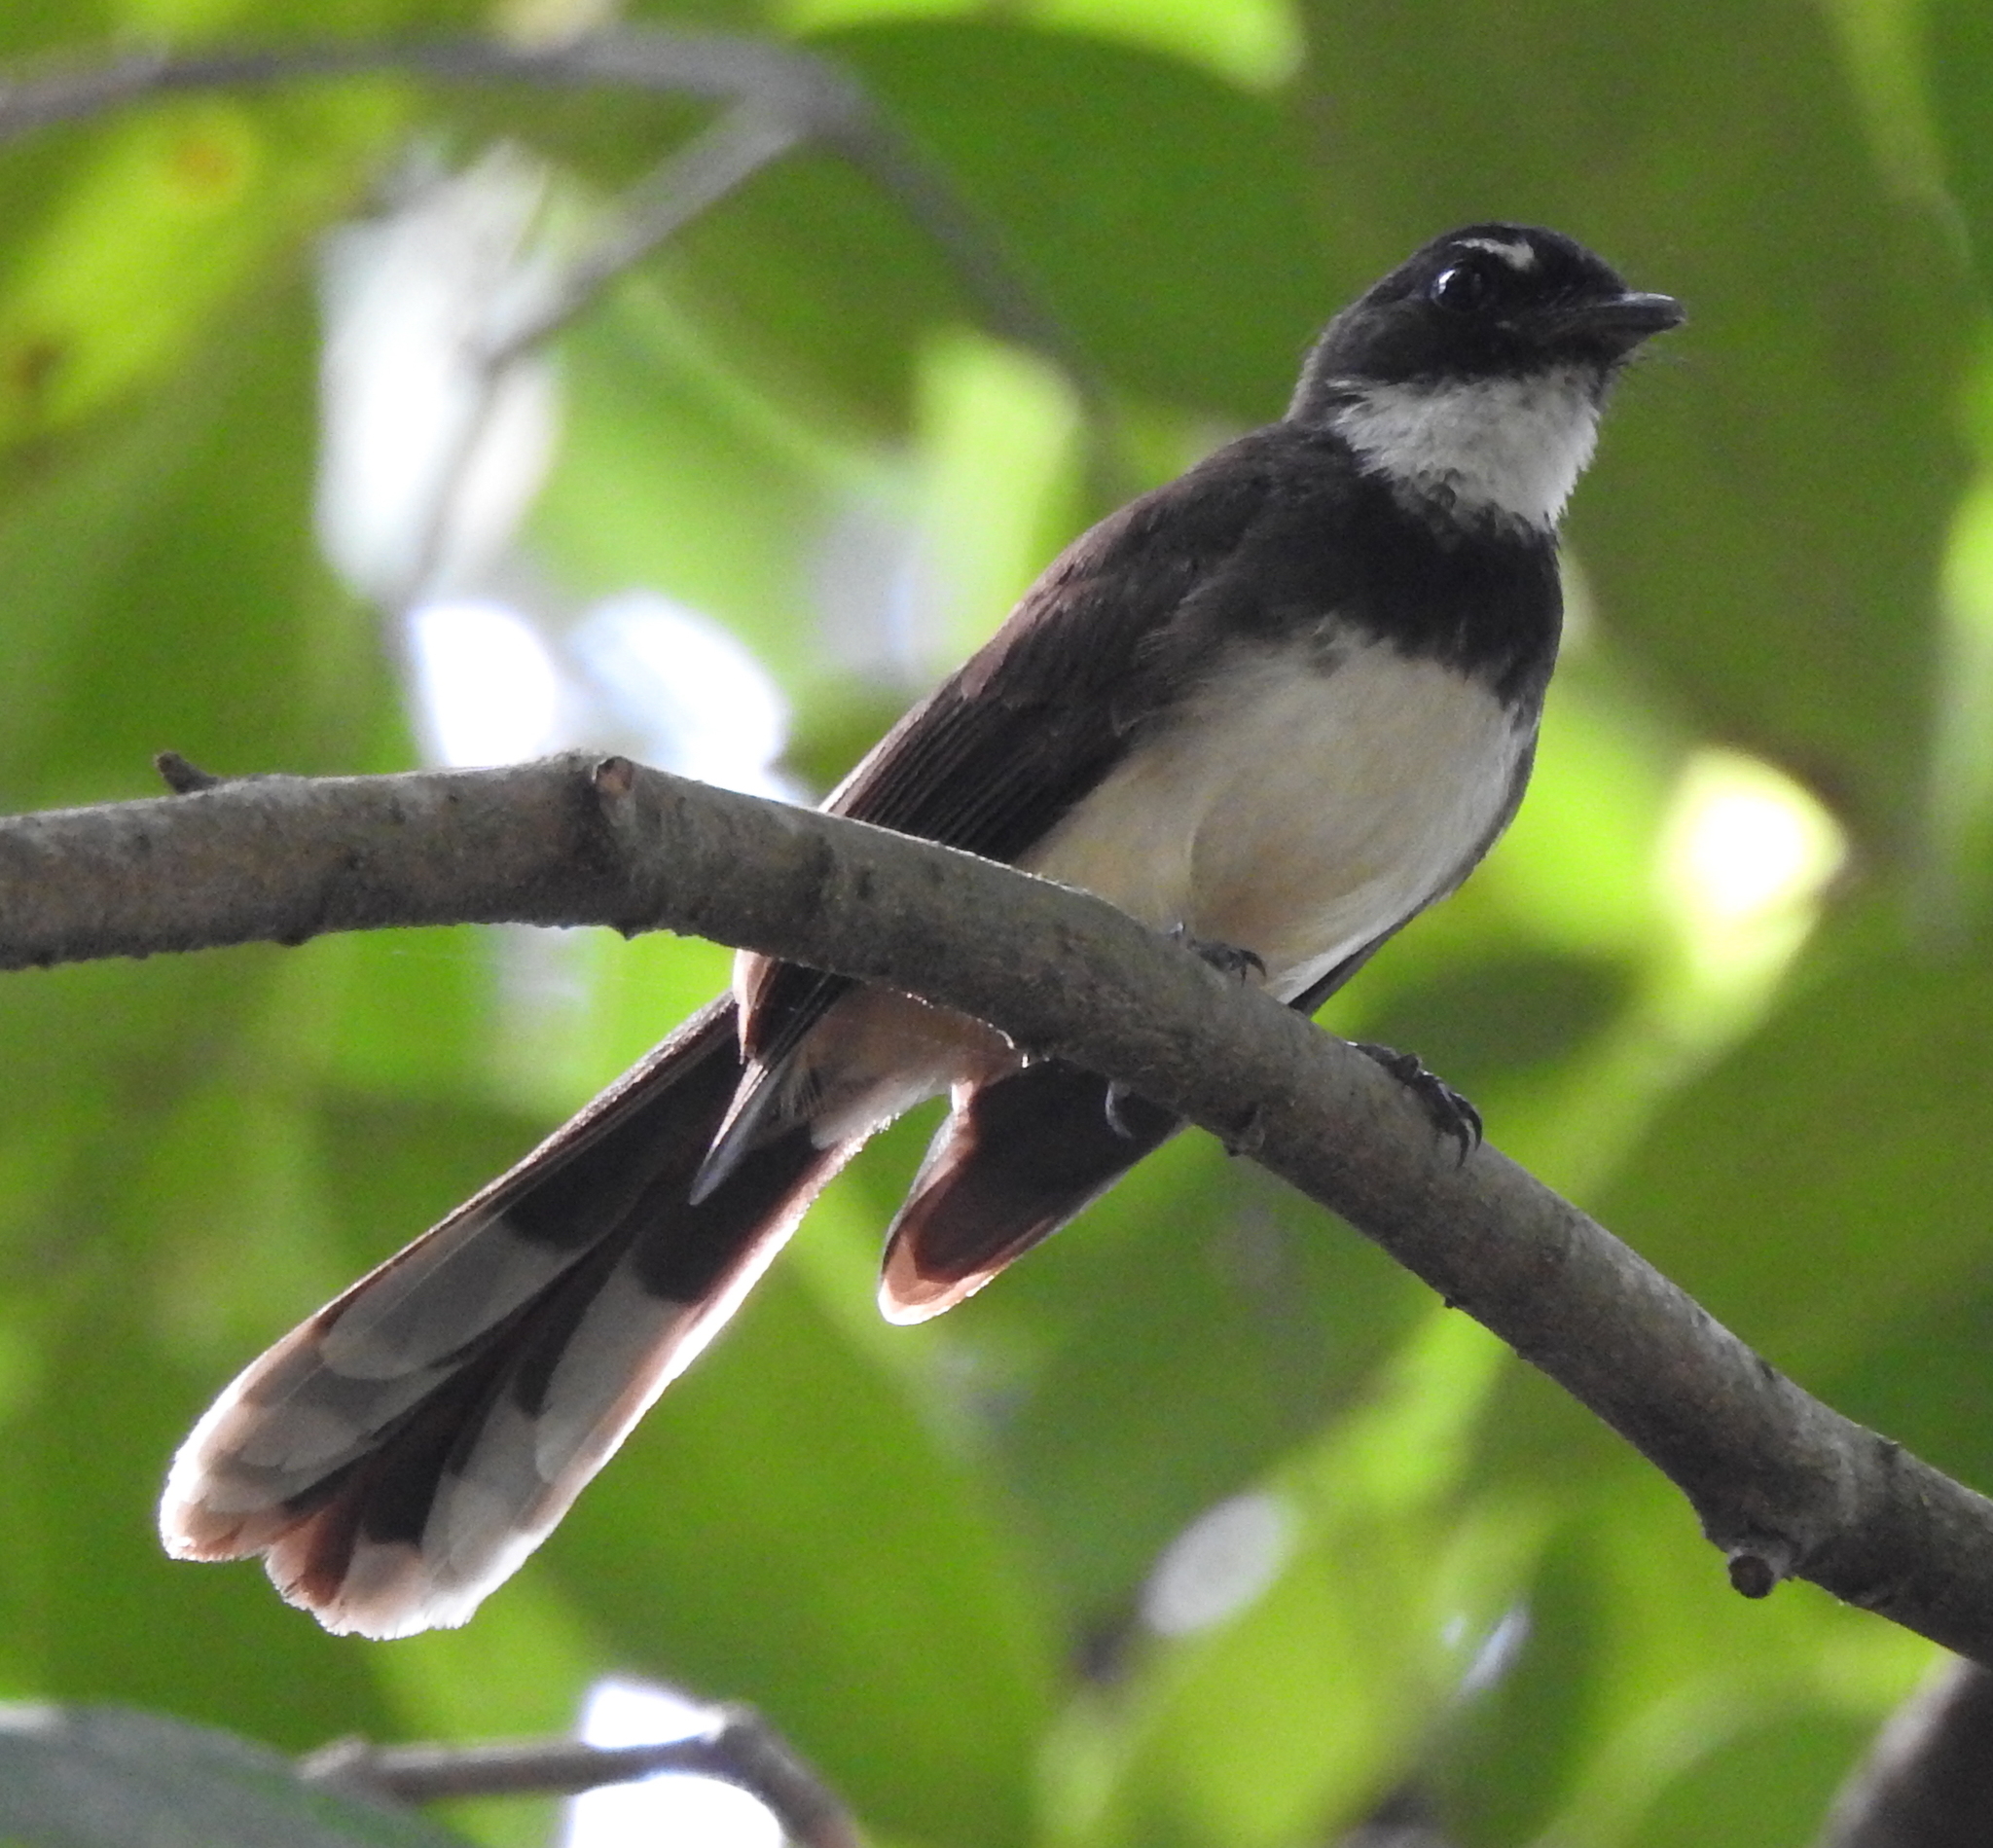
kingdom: Animalia
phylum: Chordata
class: Aves
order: Passeriformes
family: Rhipiduridae
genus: Rhipidura
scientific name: Rhipidura javanica
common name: Pied fantail
